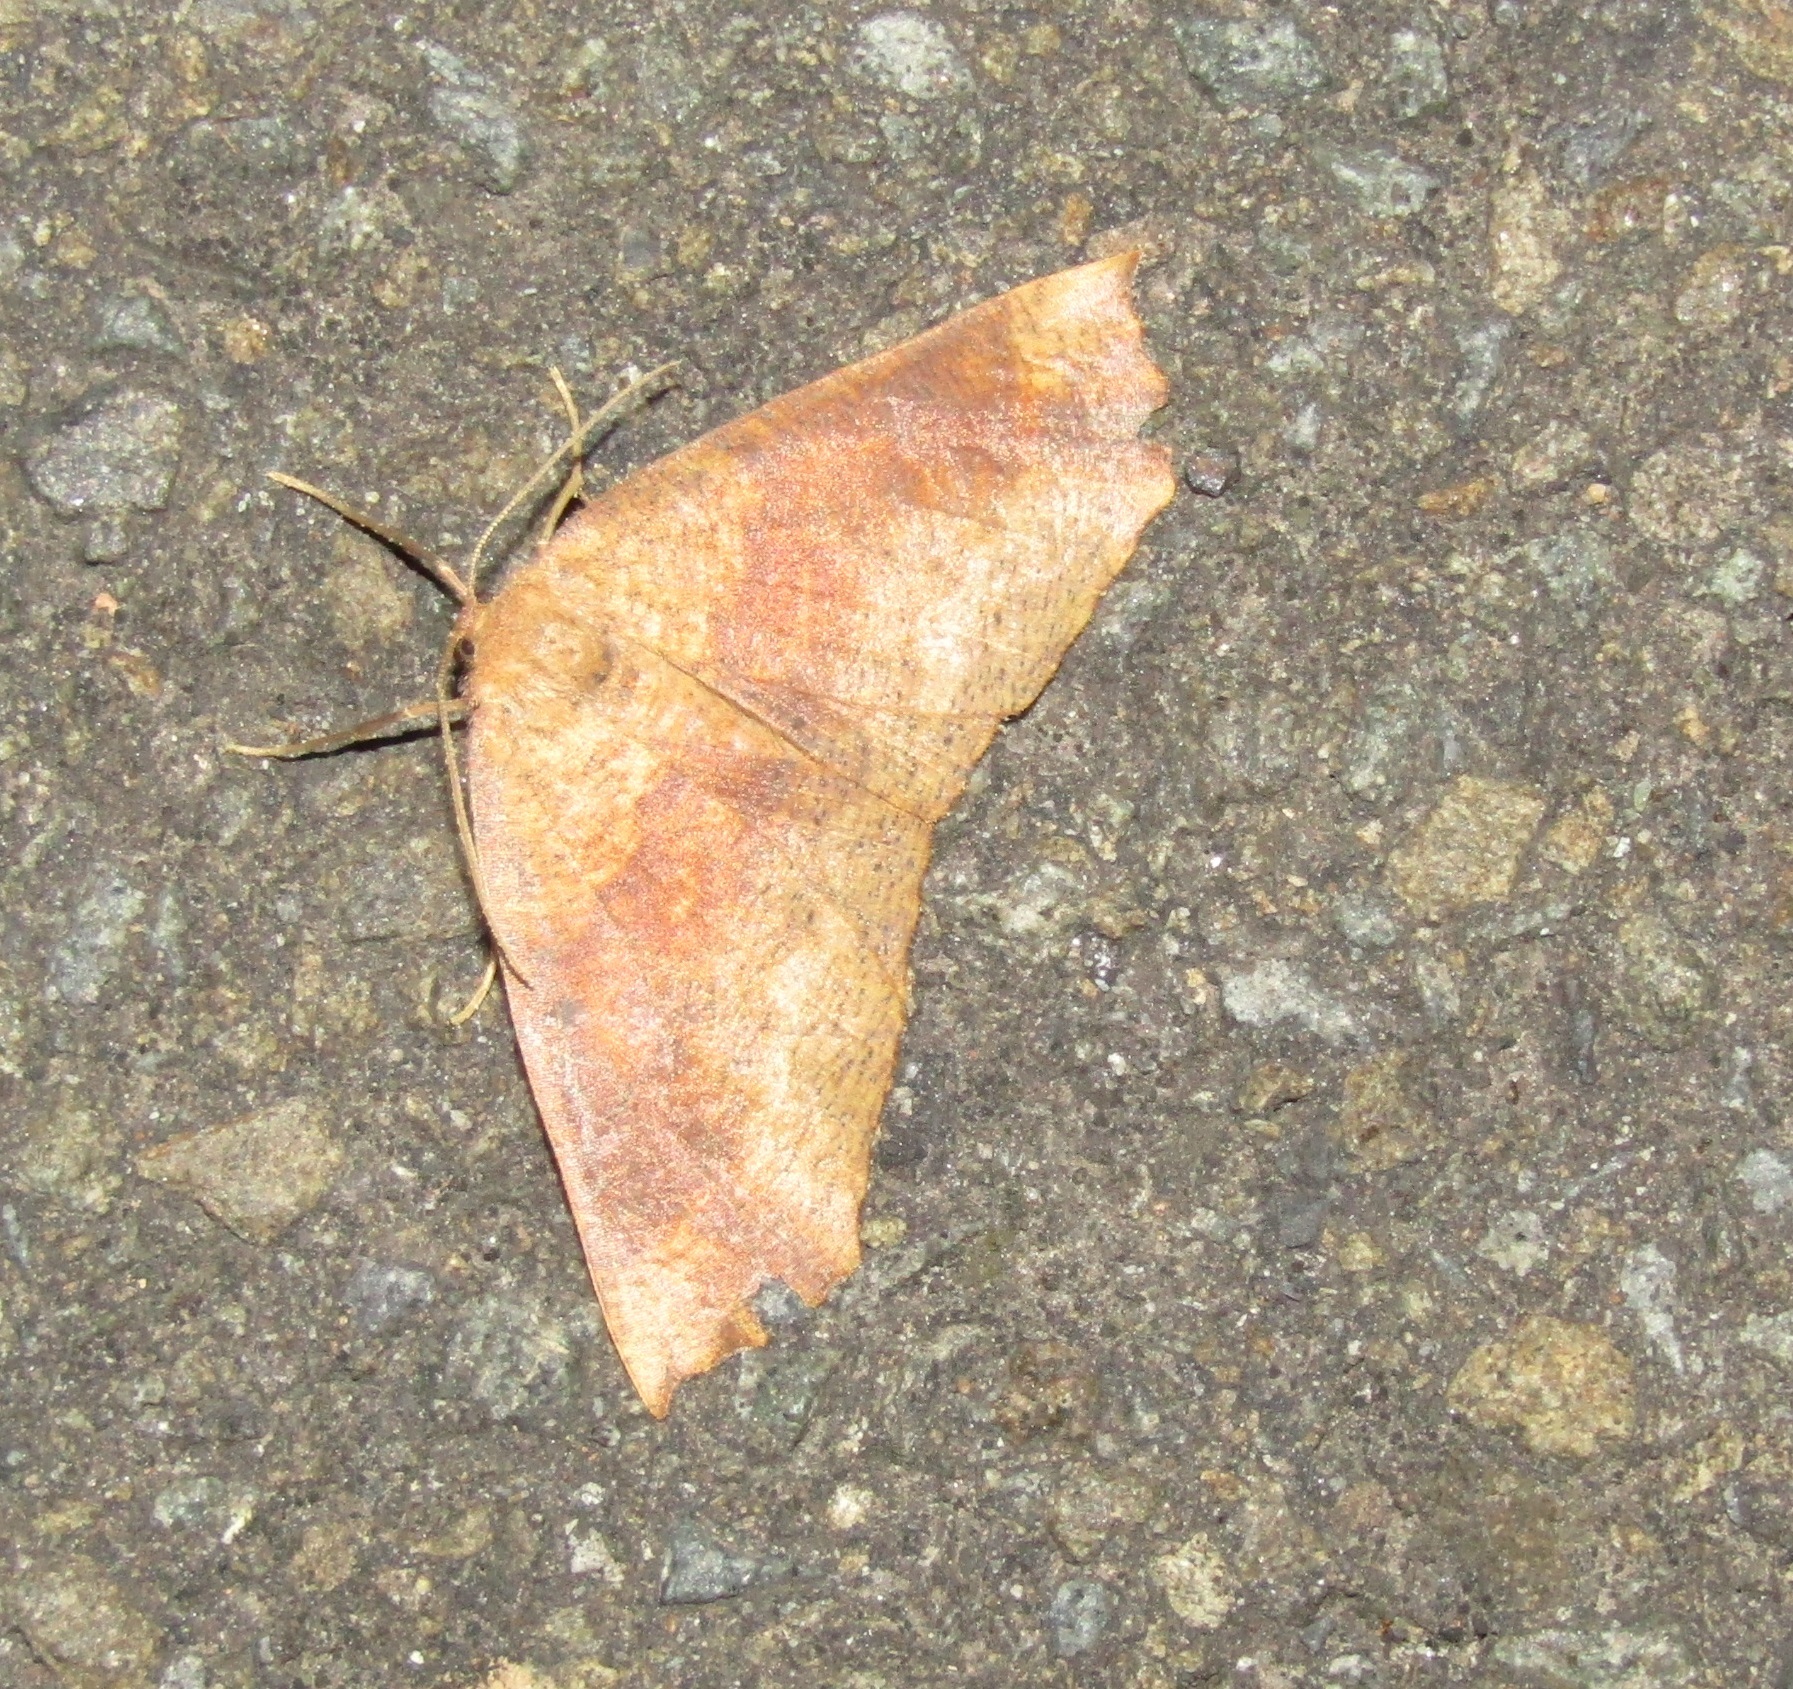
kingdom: Animalia
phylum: Arthropoda
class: Insecta
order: Lepidoptera
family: Geometridae
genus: Xyridacma
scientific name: Xyridacma ustaria
